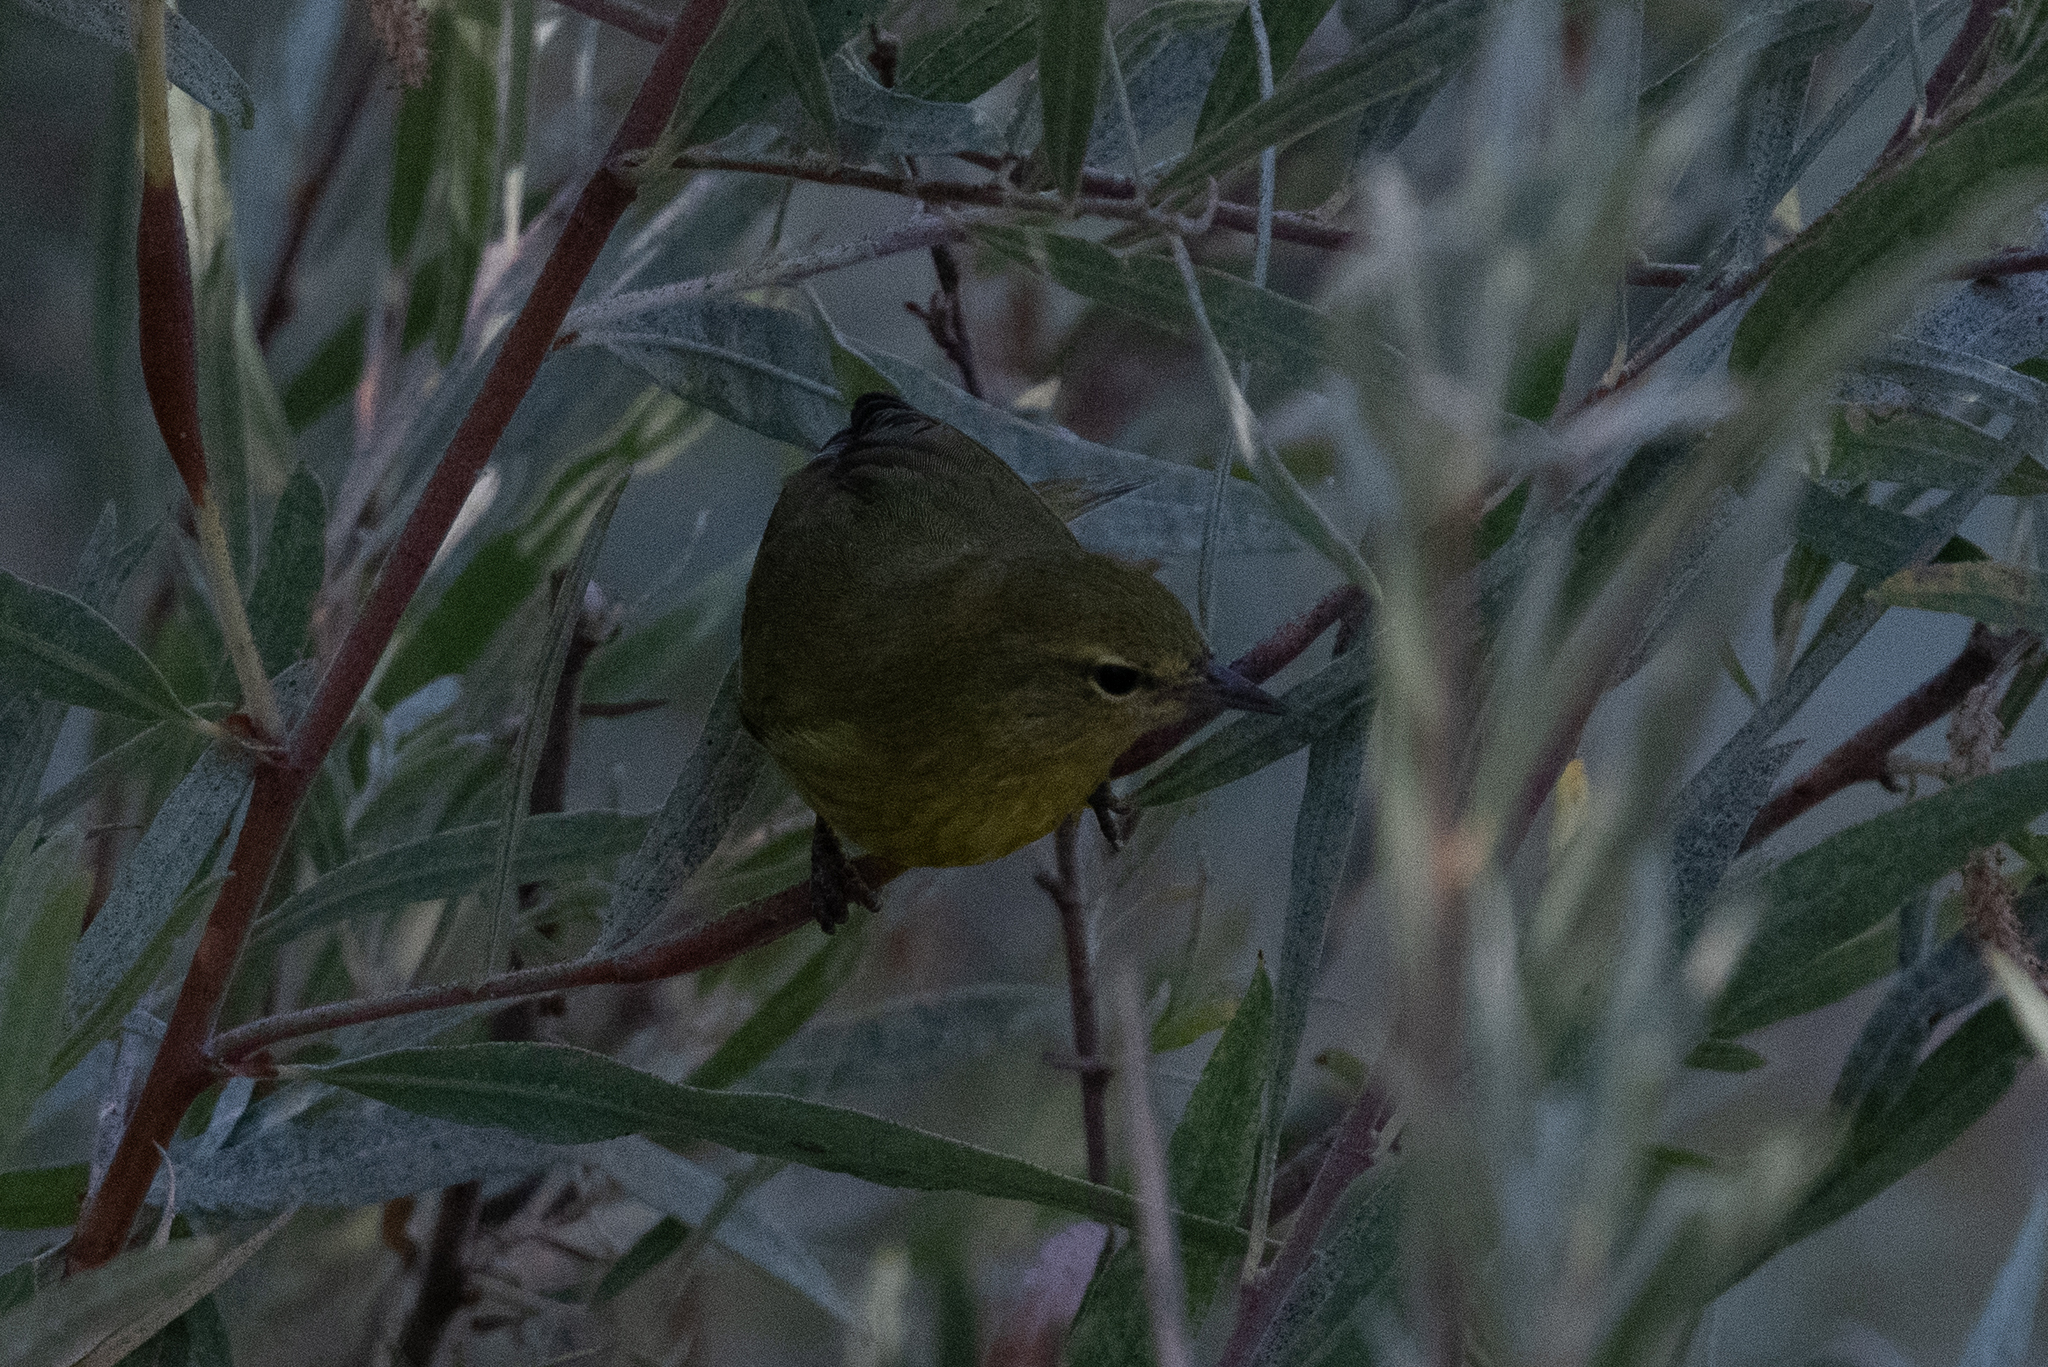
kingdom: Animalia
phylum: Chordata
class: Aves
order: Passeriformes
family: Parulidae
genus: Leiothlypis
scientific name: Leiothlypis celata
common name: Orange-crowned warbler
